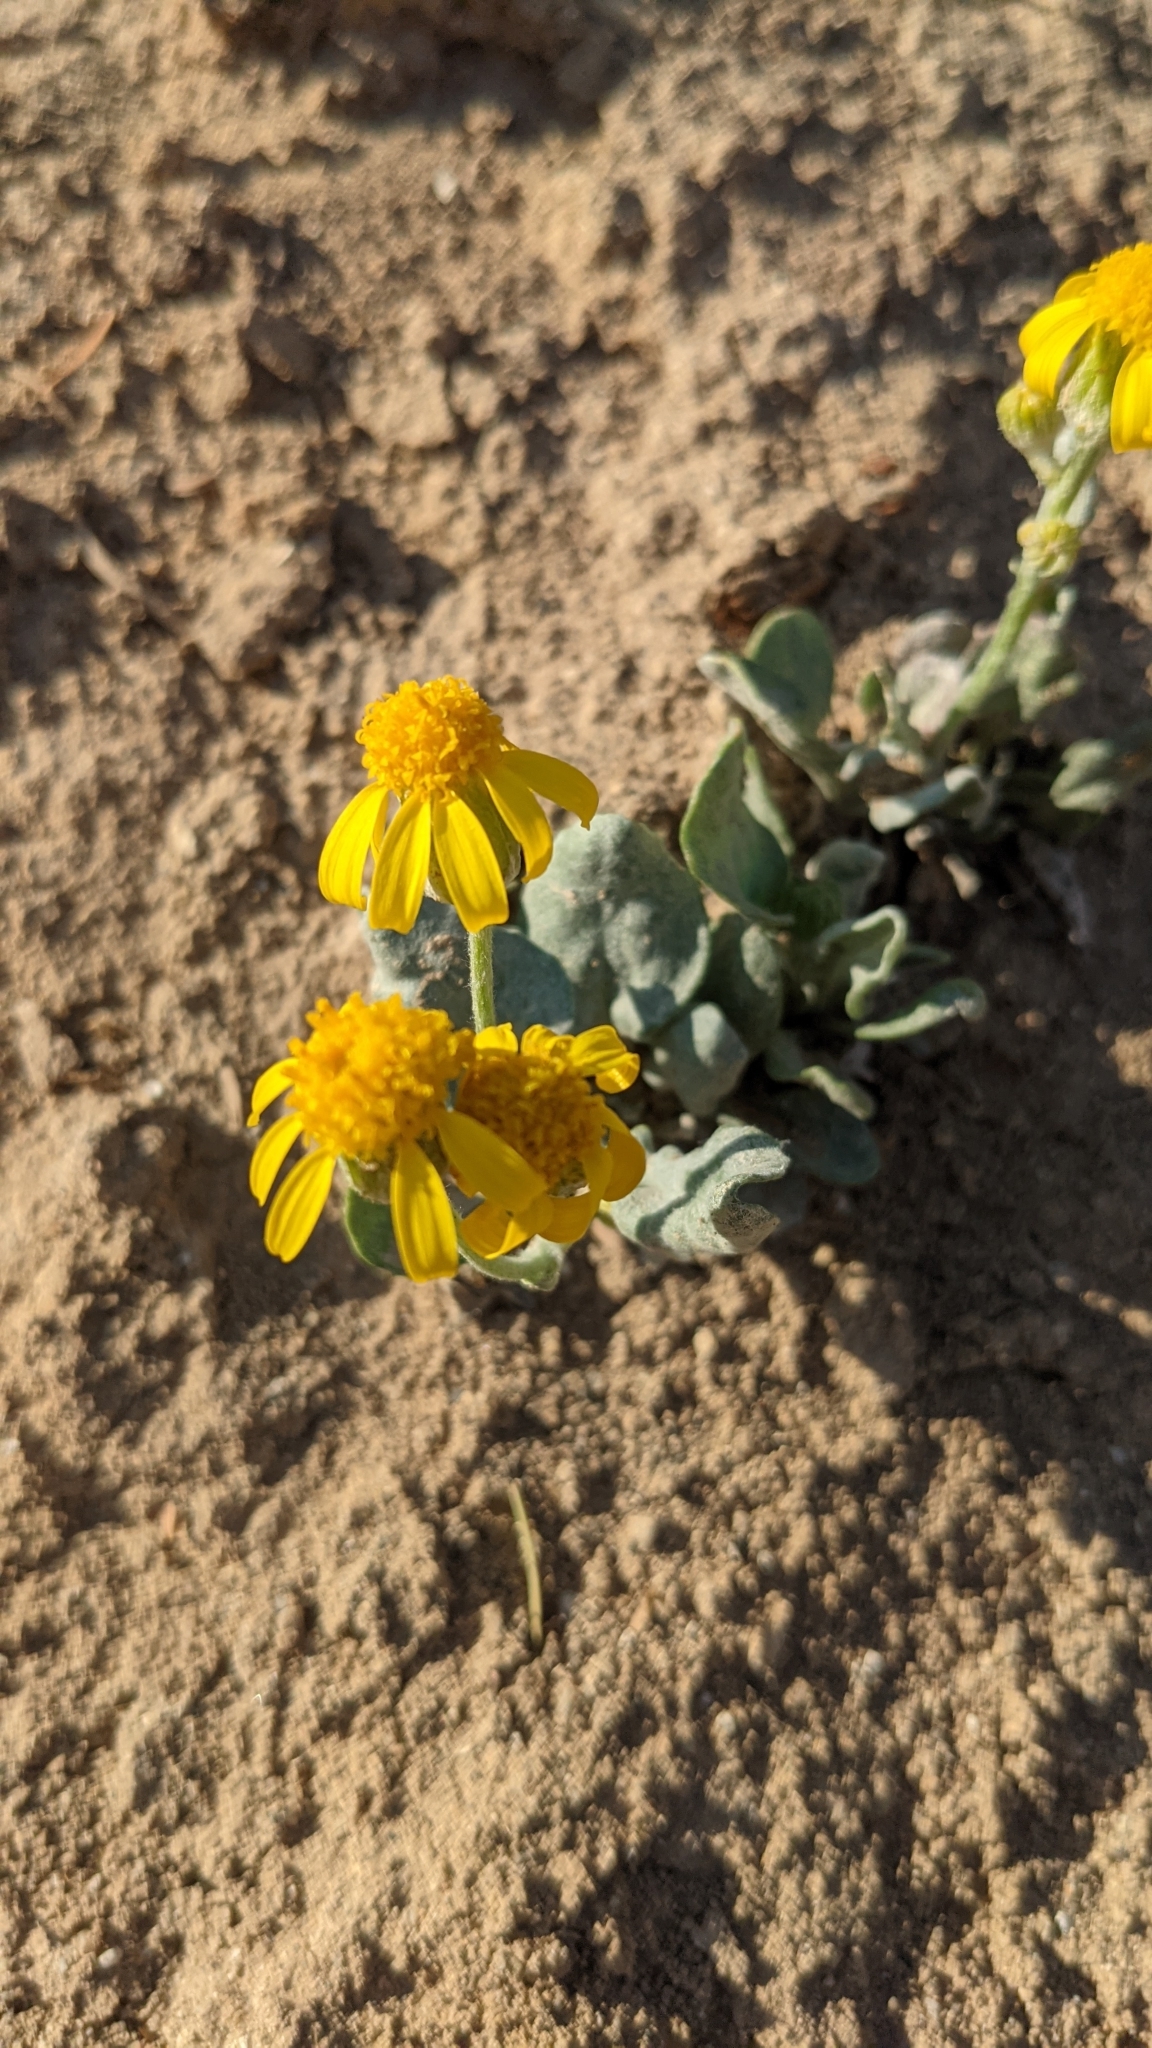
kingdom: Plantae
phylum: Tracheophyta
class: Magnoliopsida
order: Asterales
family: Asteraceae
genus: Packera
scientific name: Packera cana
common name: Woolly groundsel
